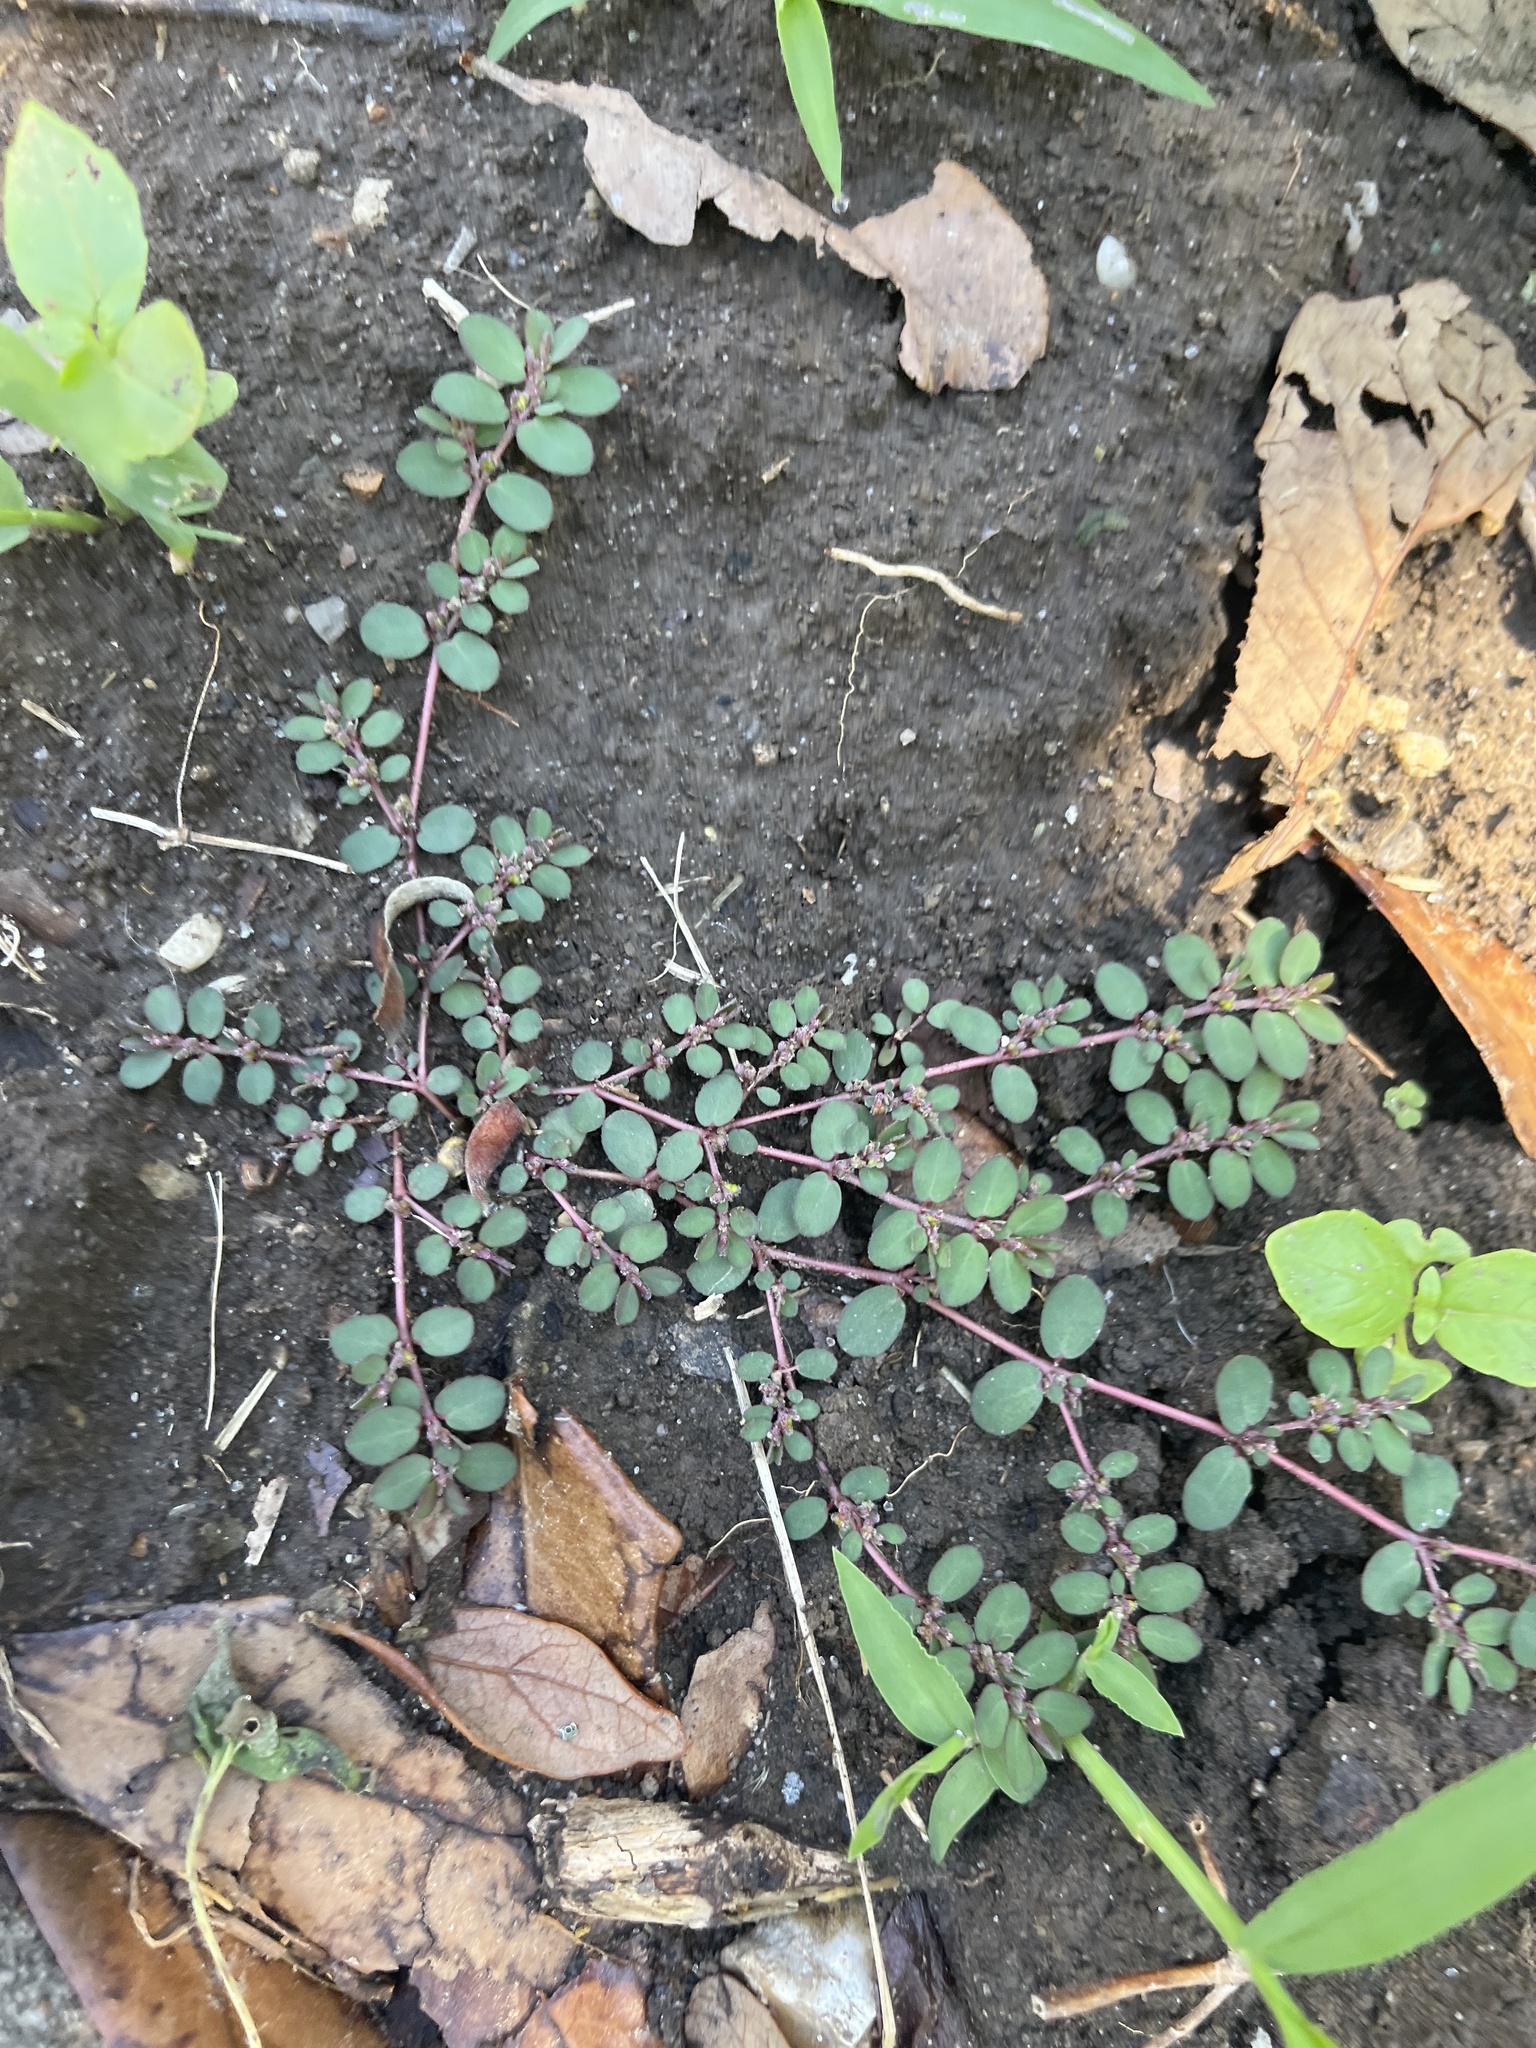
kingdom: Plantae
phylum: Tracheophyta
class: Magnoliopsida
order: Malpighiales
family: Euphorbiaceae
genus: Euphorbia
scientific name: Euphorbia prostrata
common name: Prostrate sandmat
